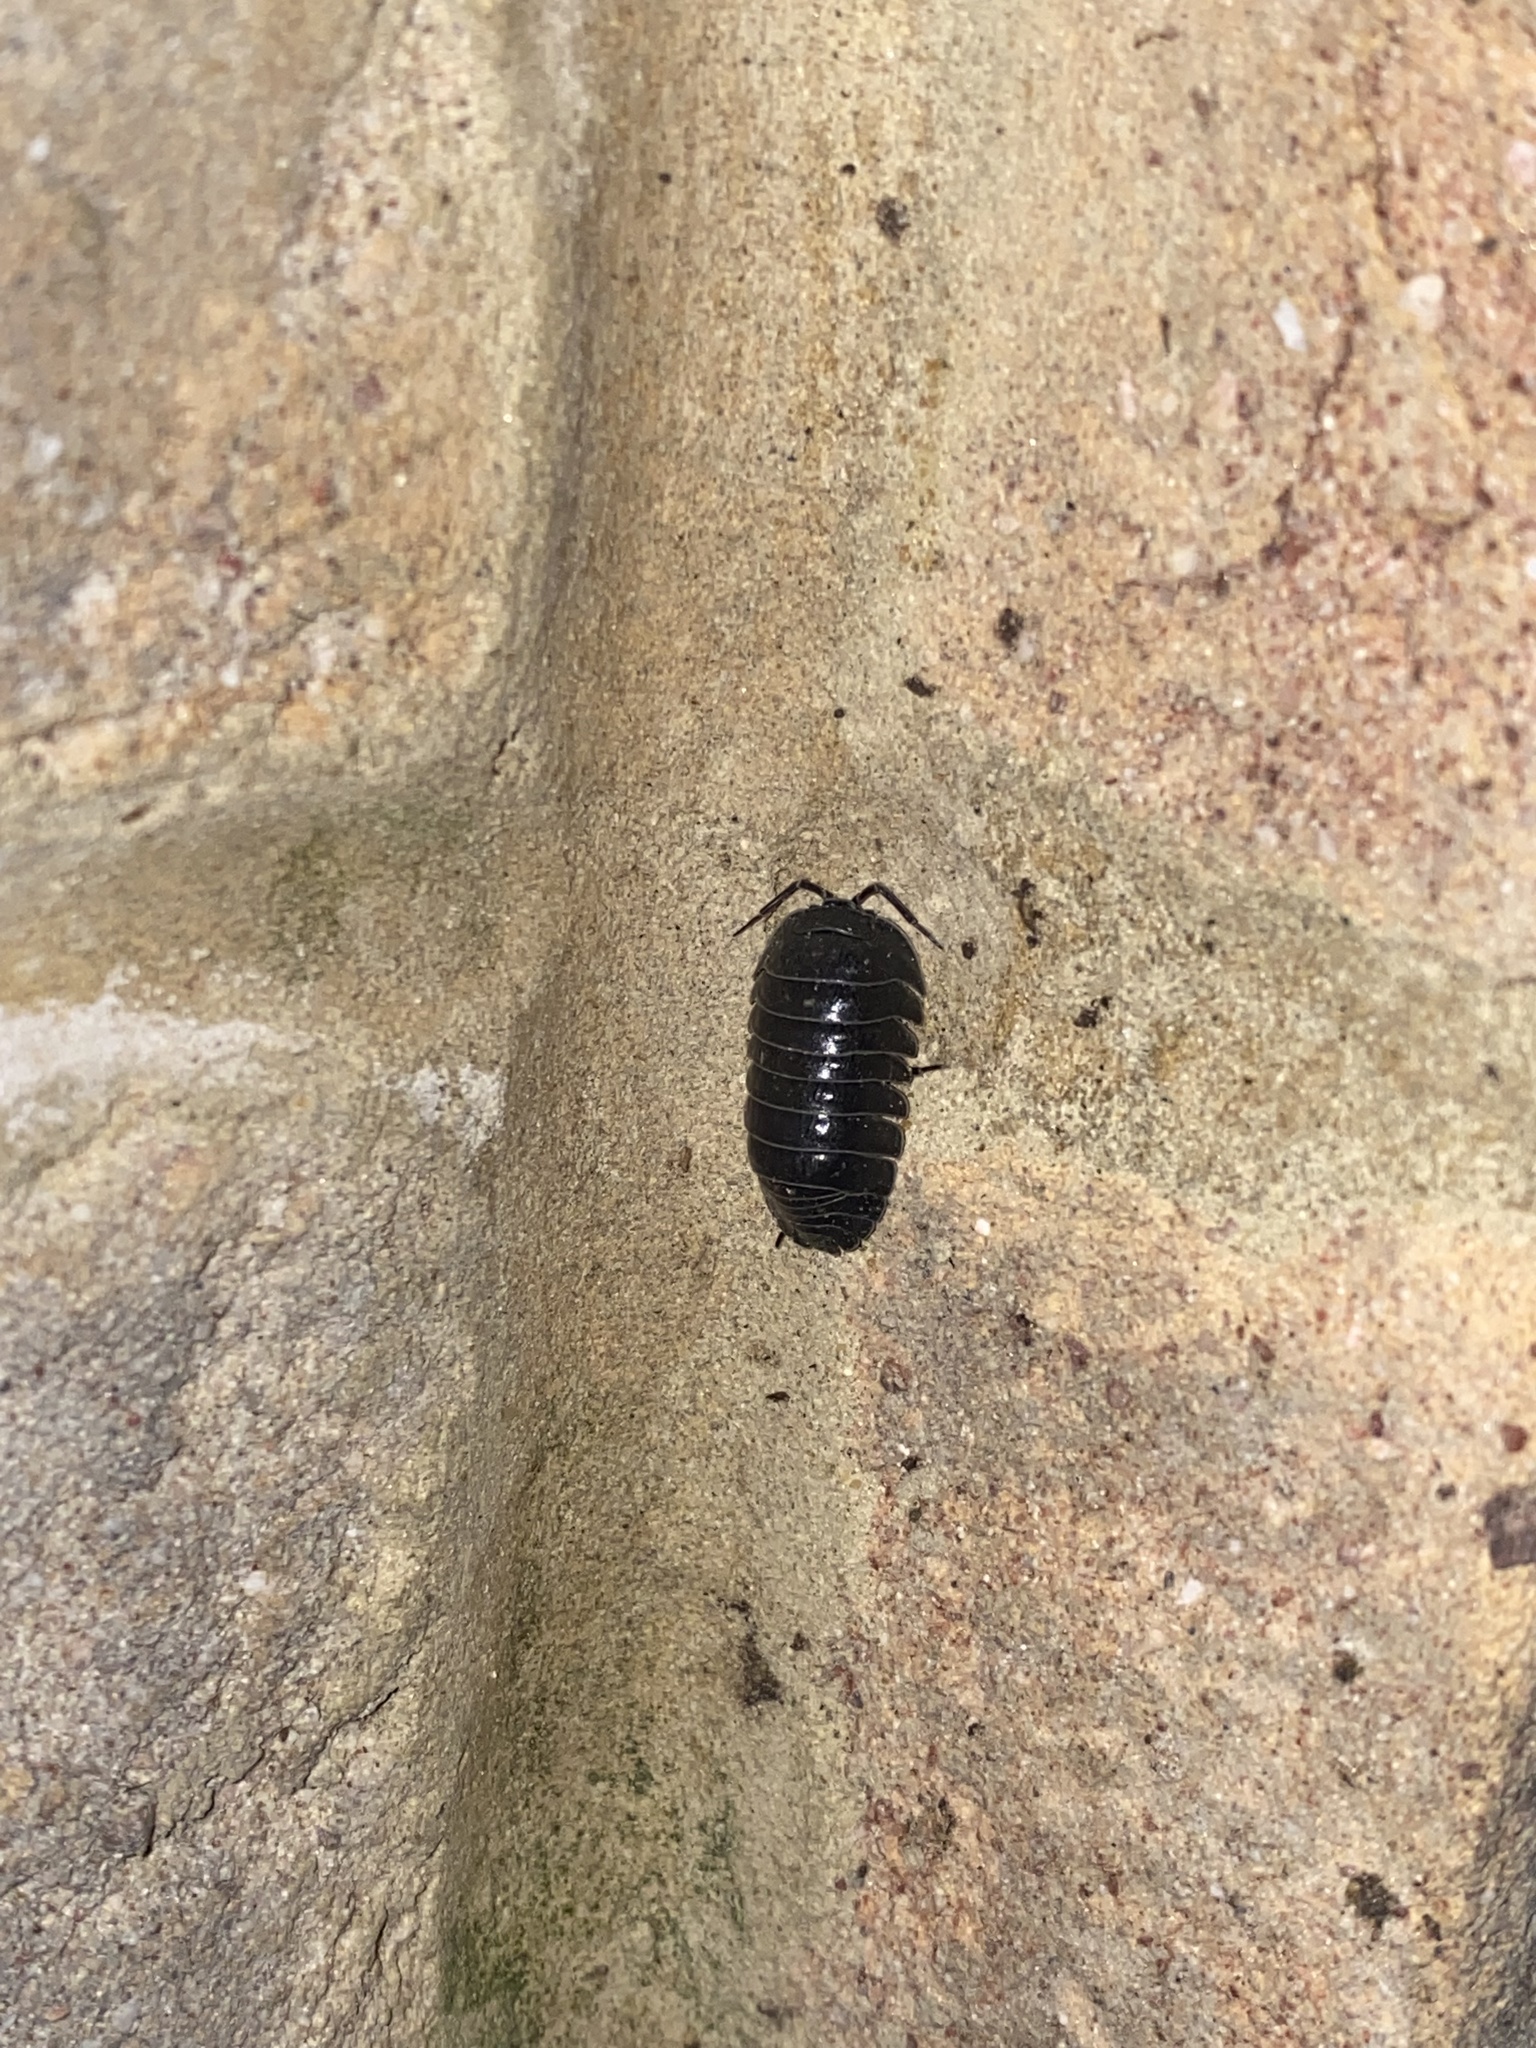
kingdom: Animalia
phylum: Arthropoda
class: Malacostraca
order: Isopoda
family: Armadillidiidae
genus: Armadillidium
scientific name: Armadillidium depressum
